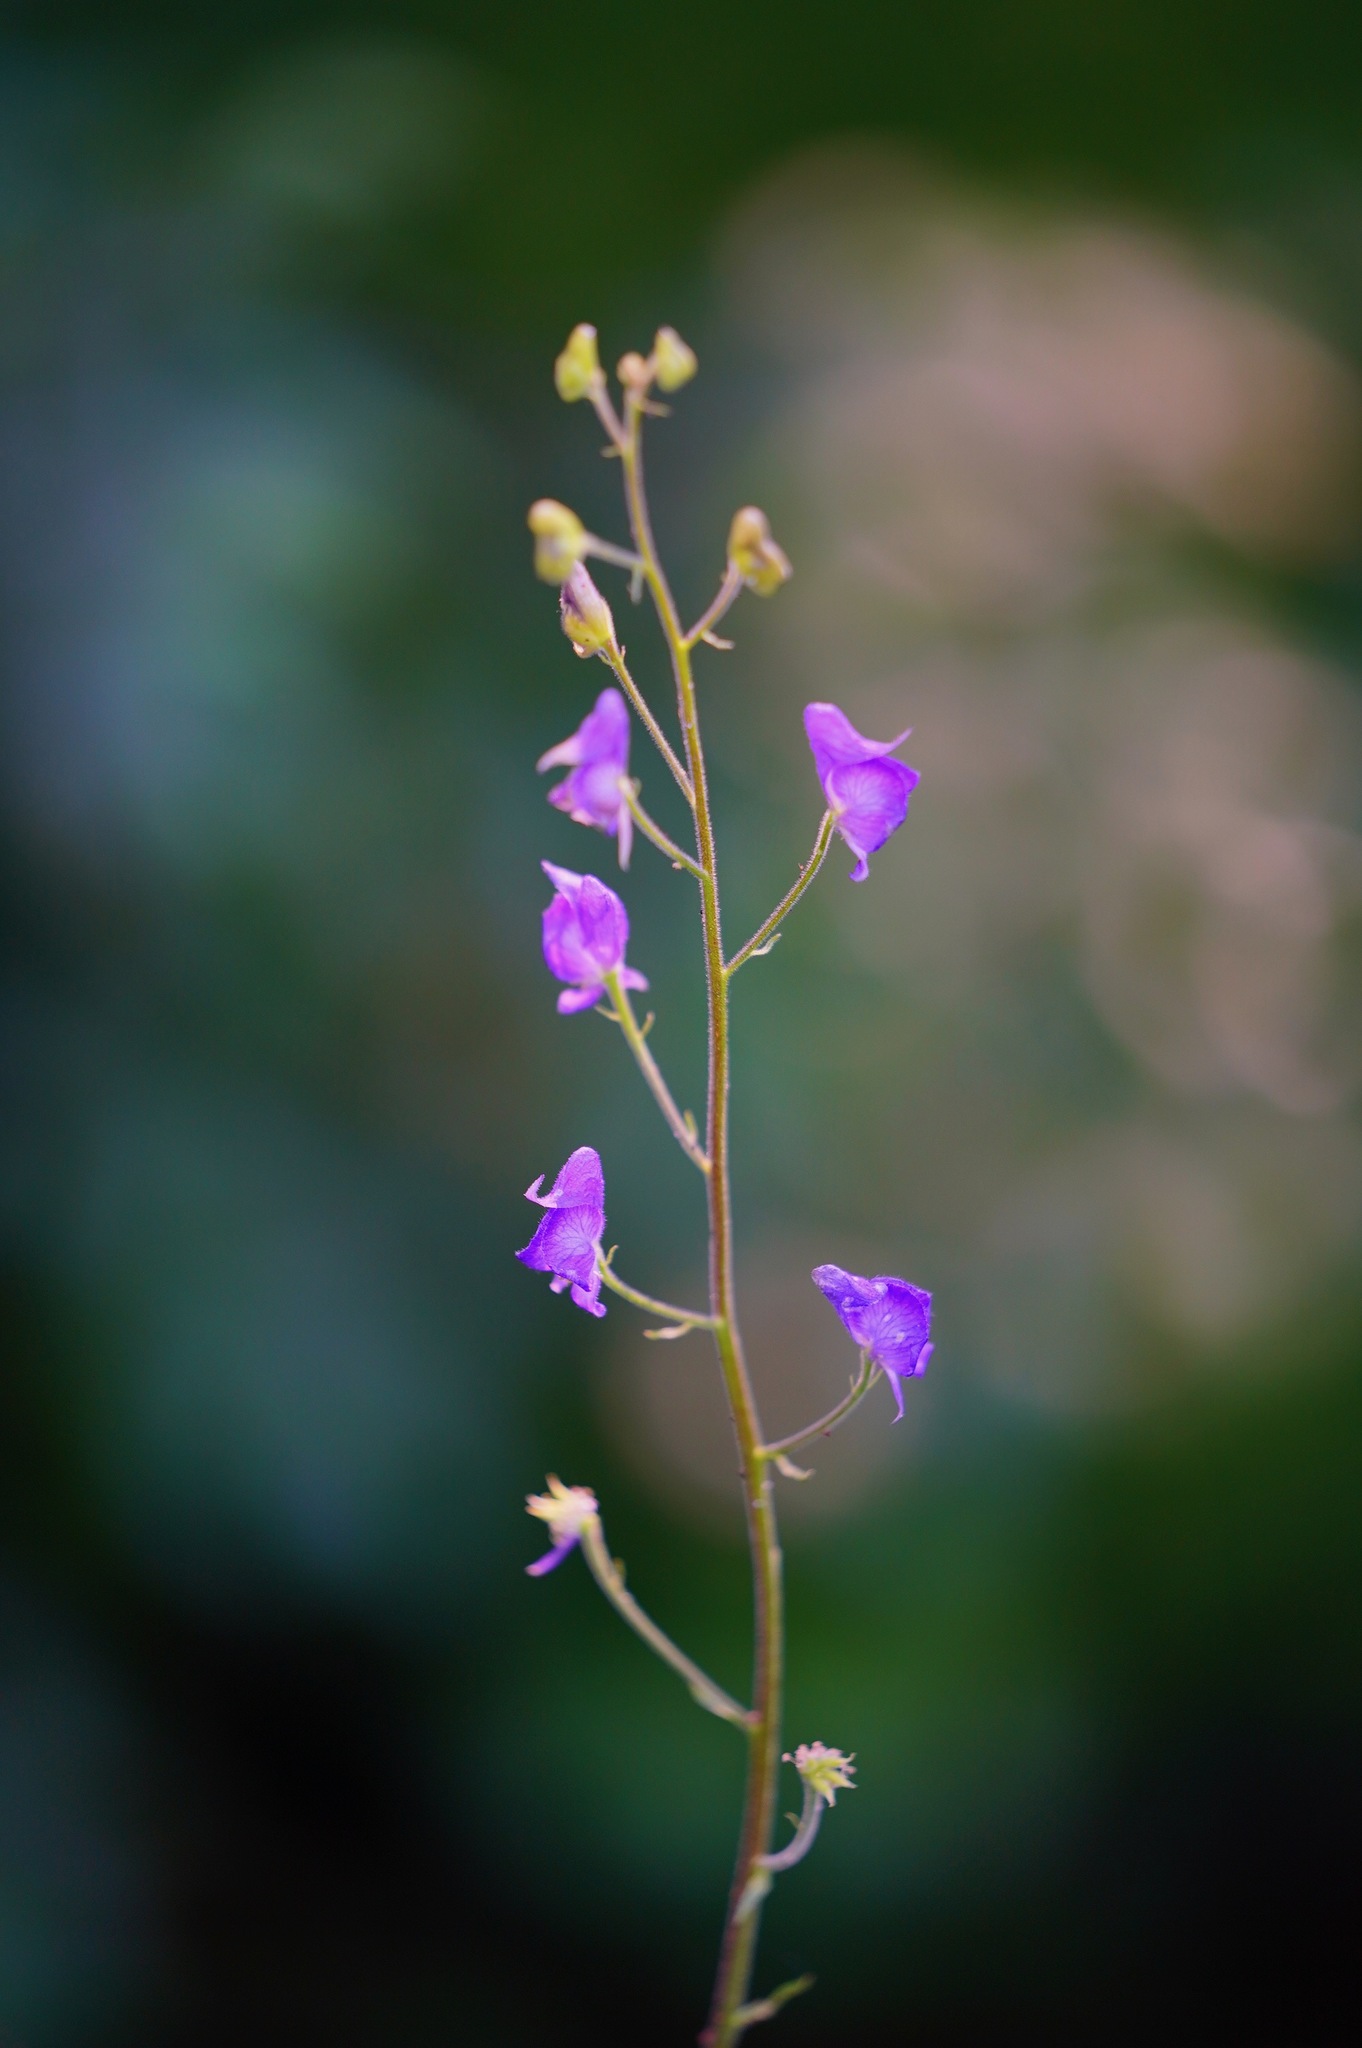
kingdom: Plantae
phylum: Tracheophyta
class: Magnoliopsida
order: Ranunculales
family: Ranunculaceae
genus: Aconitum
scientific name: Aconitum columbianum
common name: Columbia aconite
